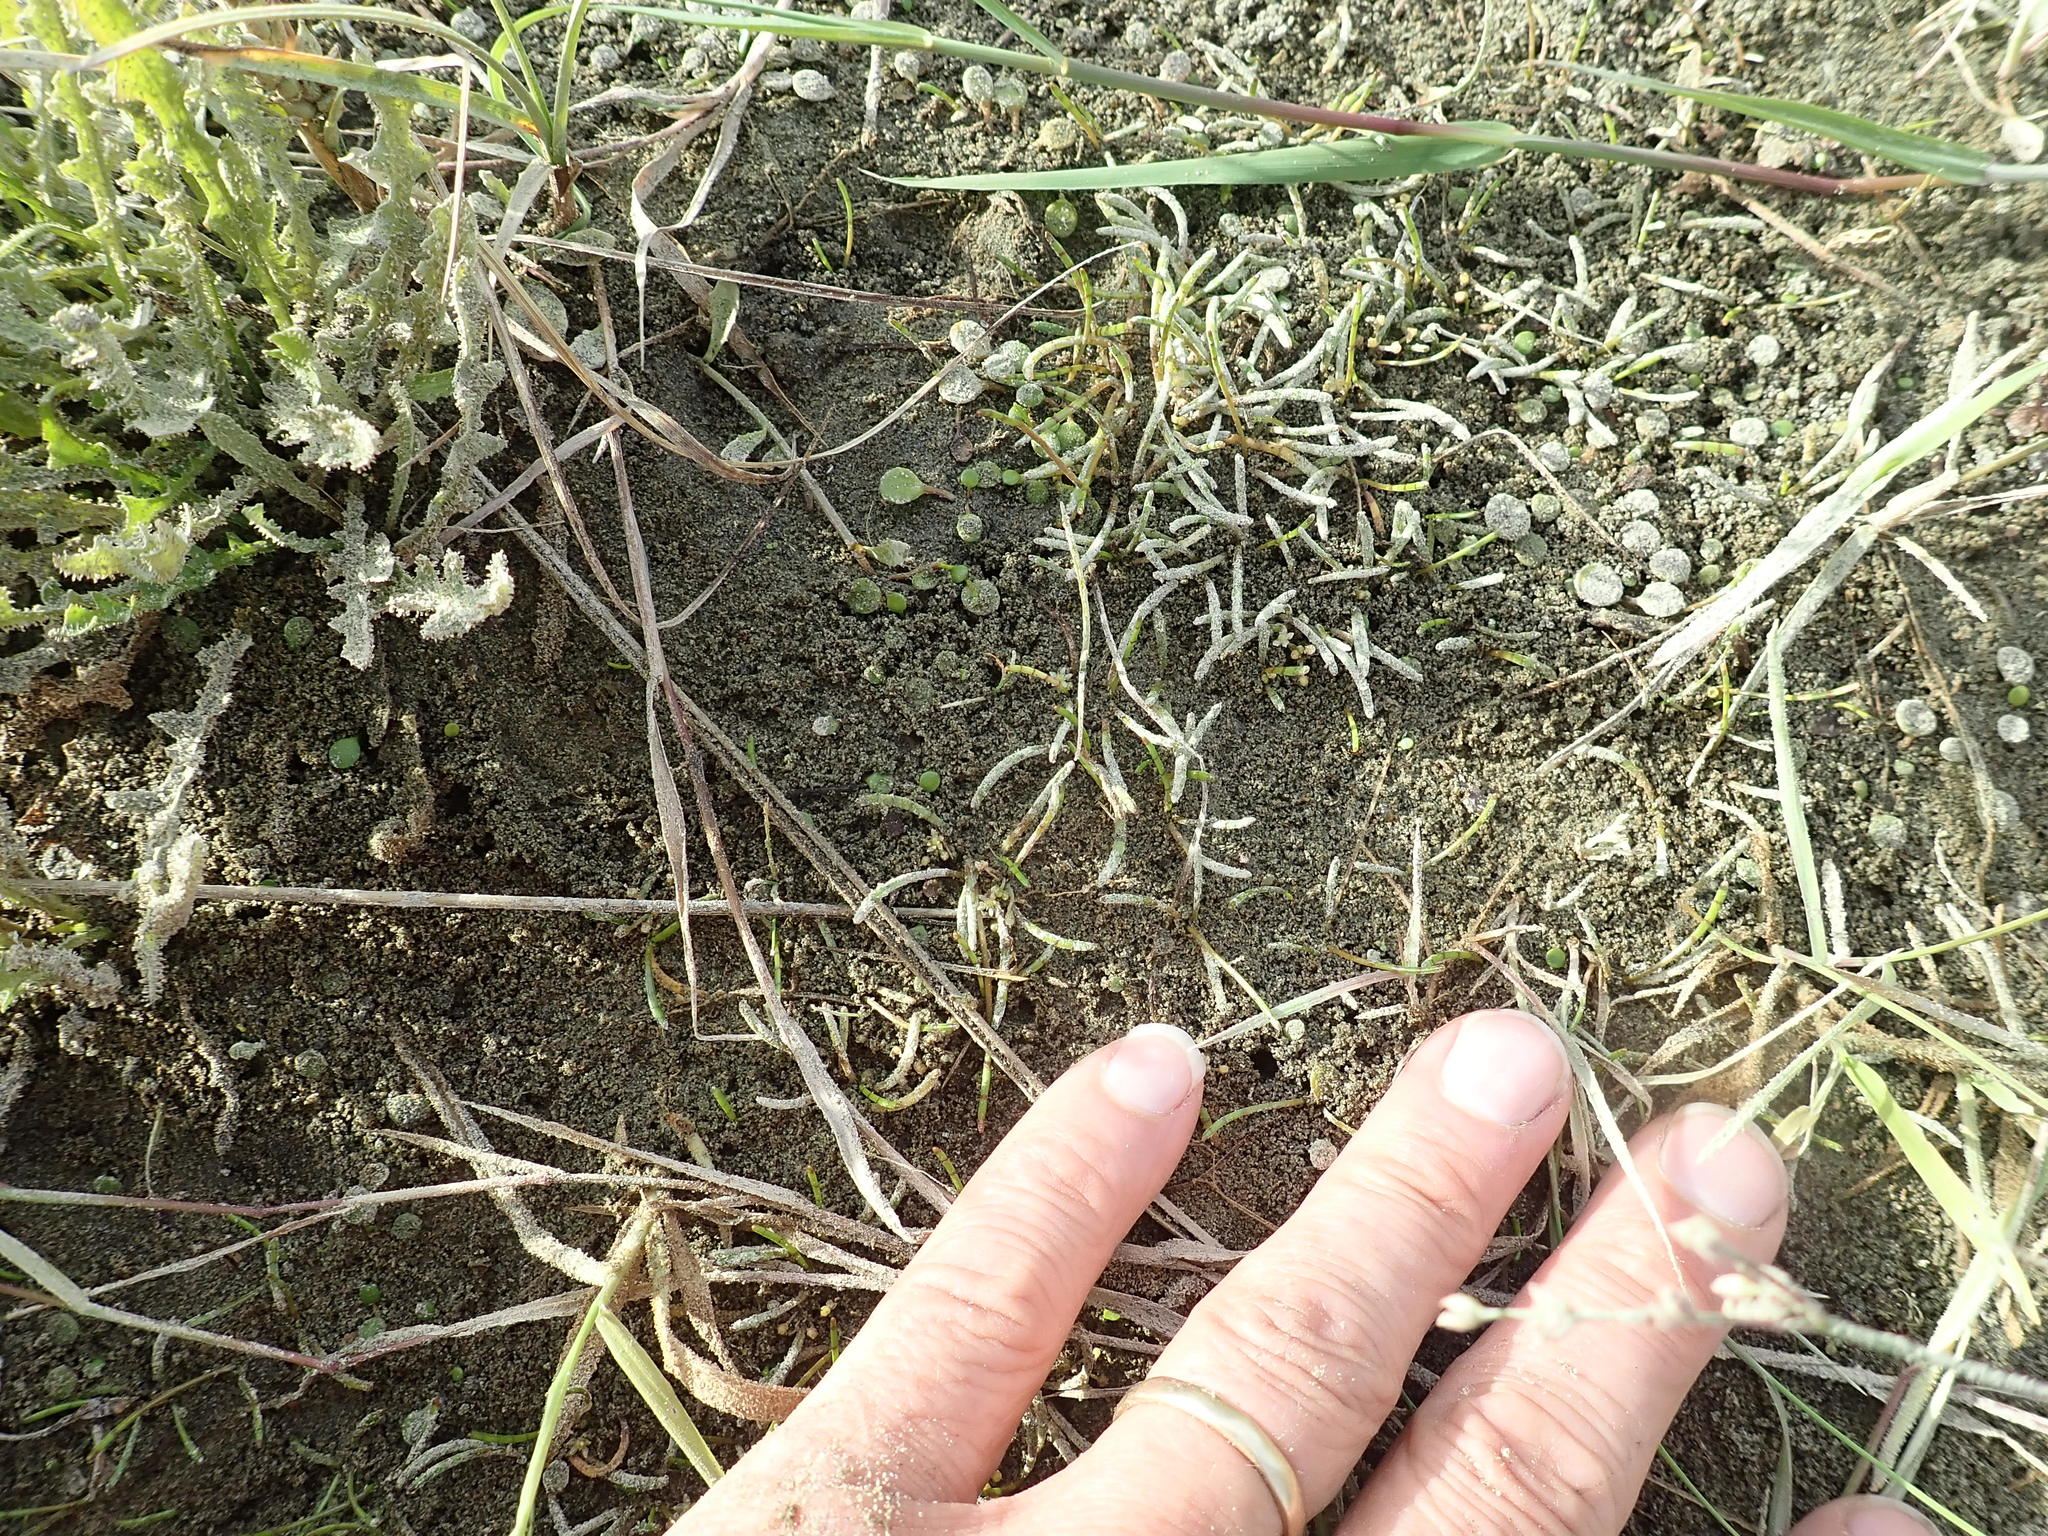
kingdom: Plantae
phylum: Tracheophyta
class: Magnoliopsida
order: Apiales
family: Apiaceae
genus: Lilaeopsis
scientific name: Lilaeopsis novae-zelandiae
